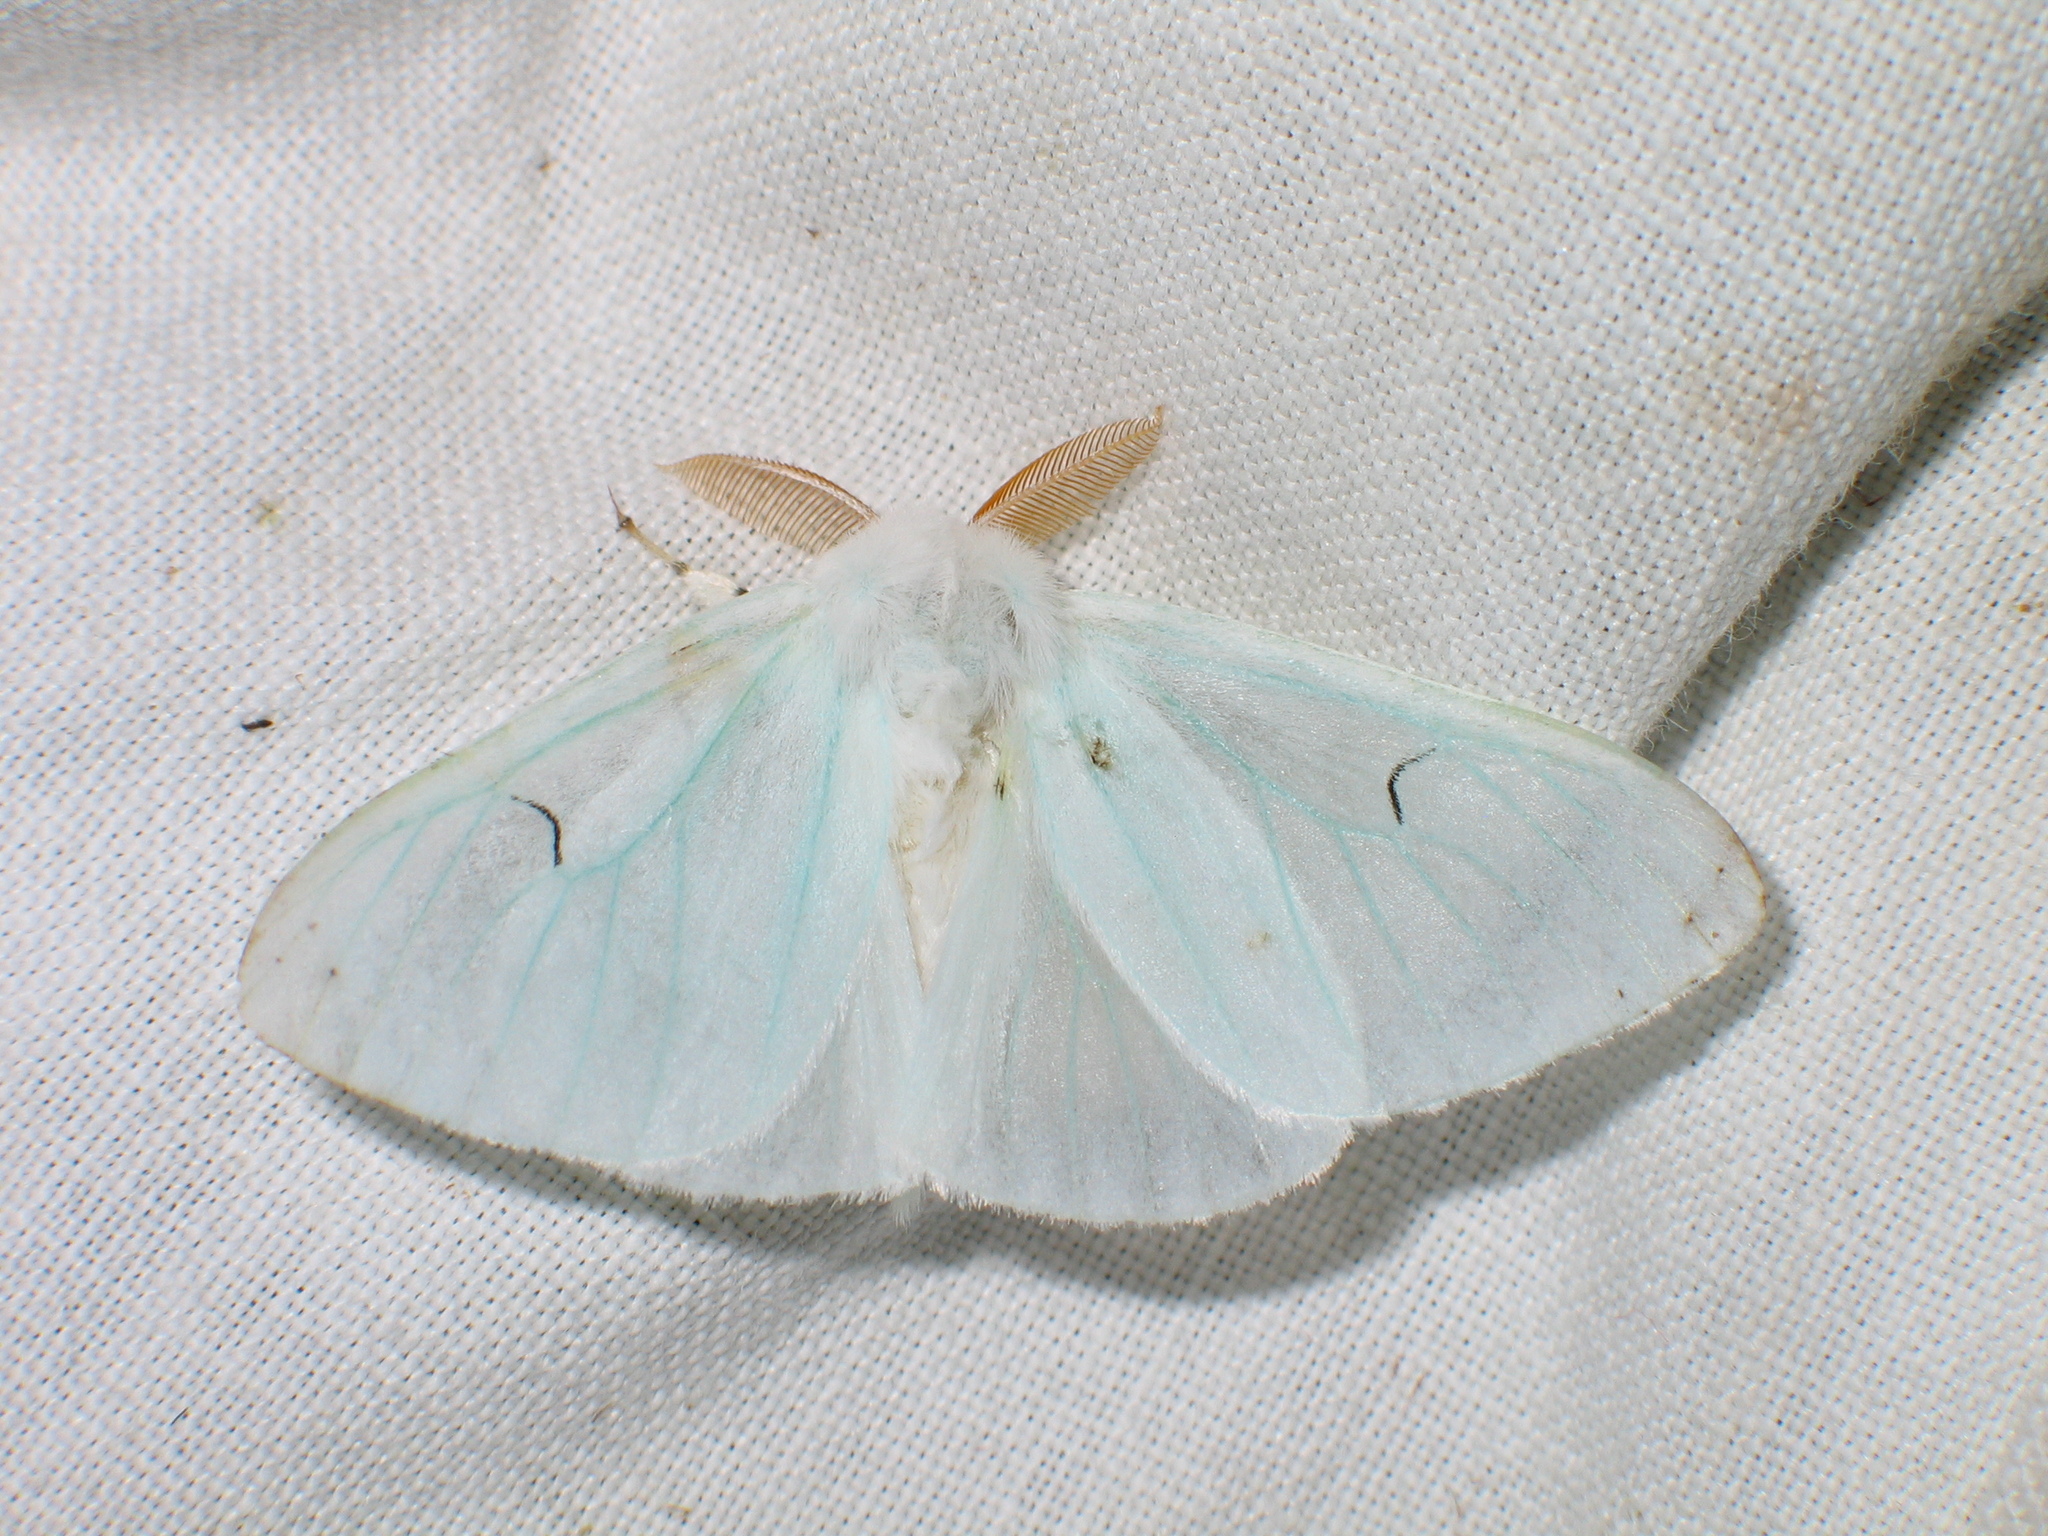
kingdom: Animalia
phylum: Arthropoda
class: Insecta
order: Lepidoptera
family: Erebidae
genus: Arctornis
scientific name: Arctornis l-nigrum
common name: Black v moth
